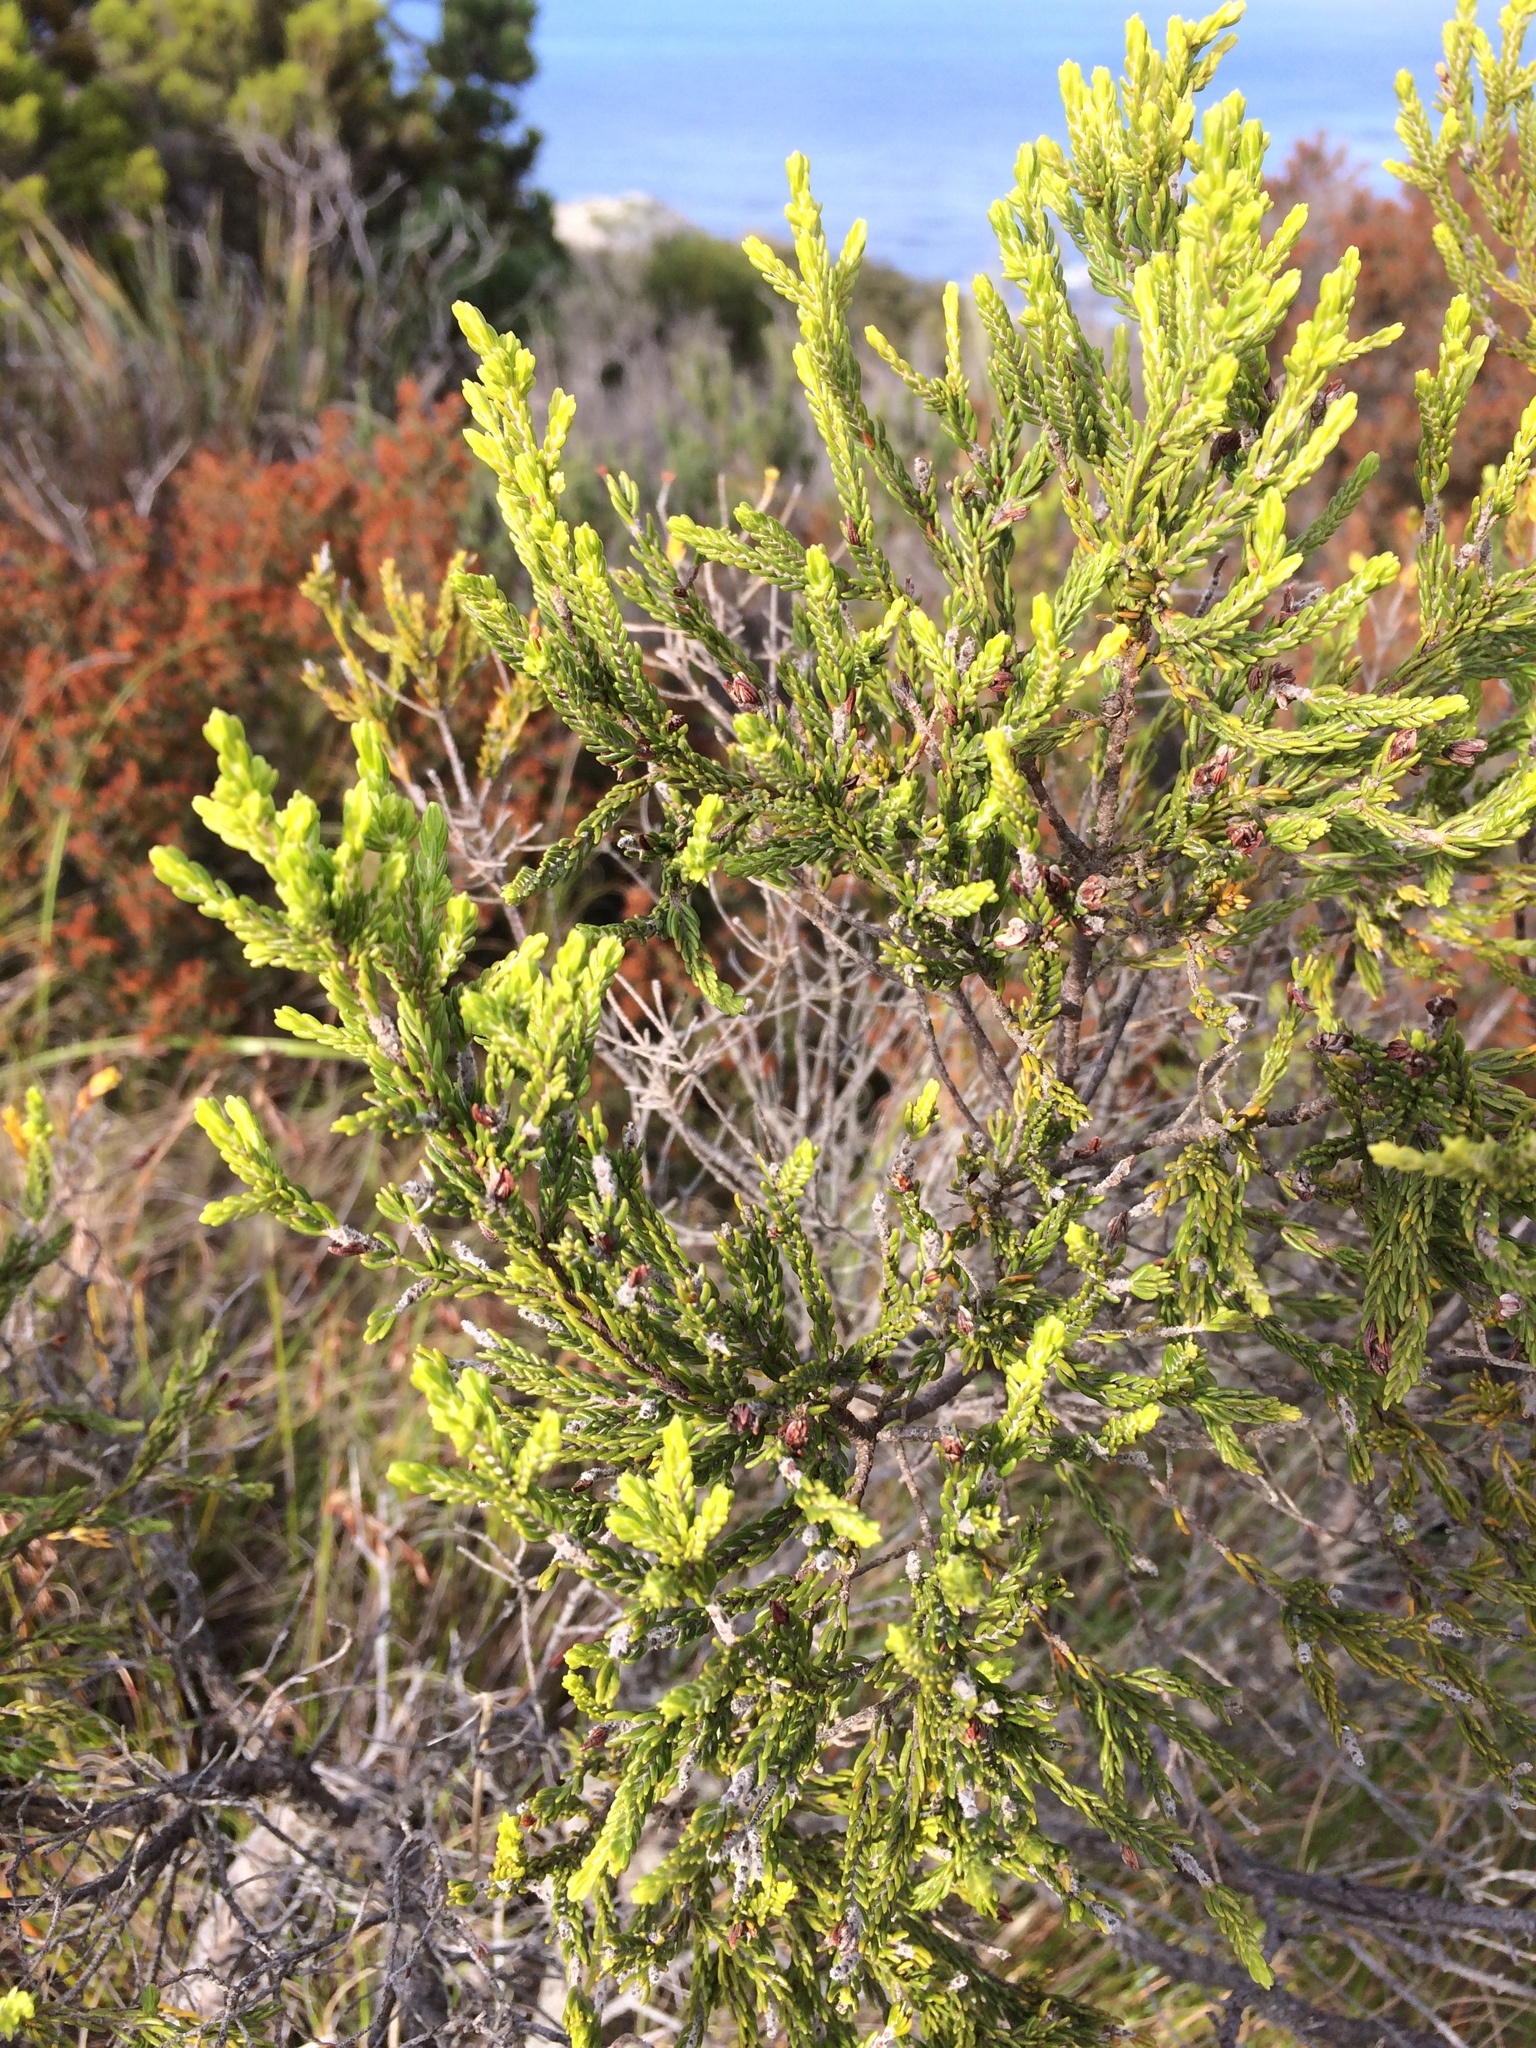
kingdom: Plantae
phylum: Tracheophyta
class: Magnoliopsida
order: Malvales
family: Thymelaeaceae
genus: Passerina
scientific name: Passerina corymbosa
